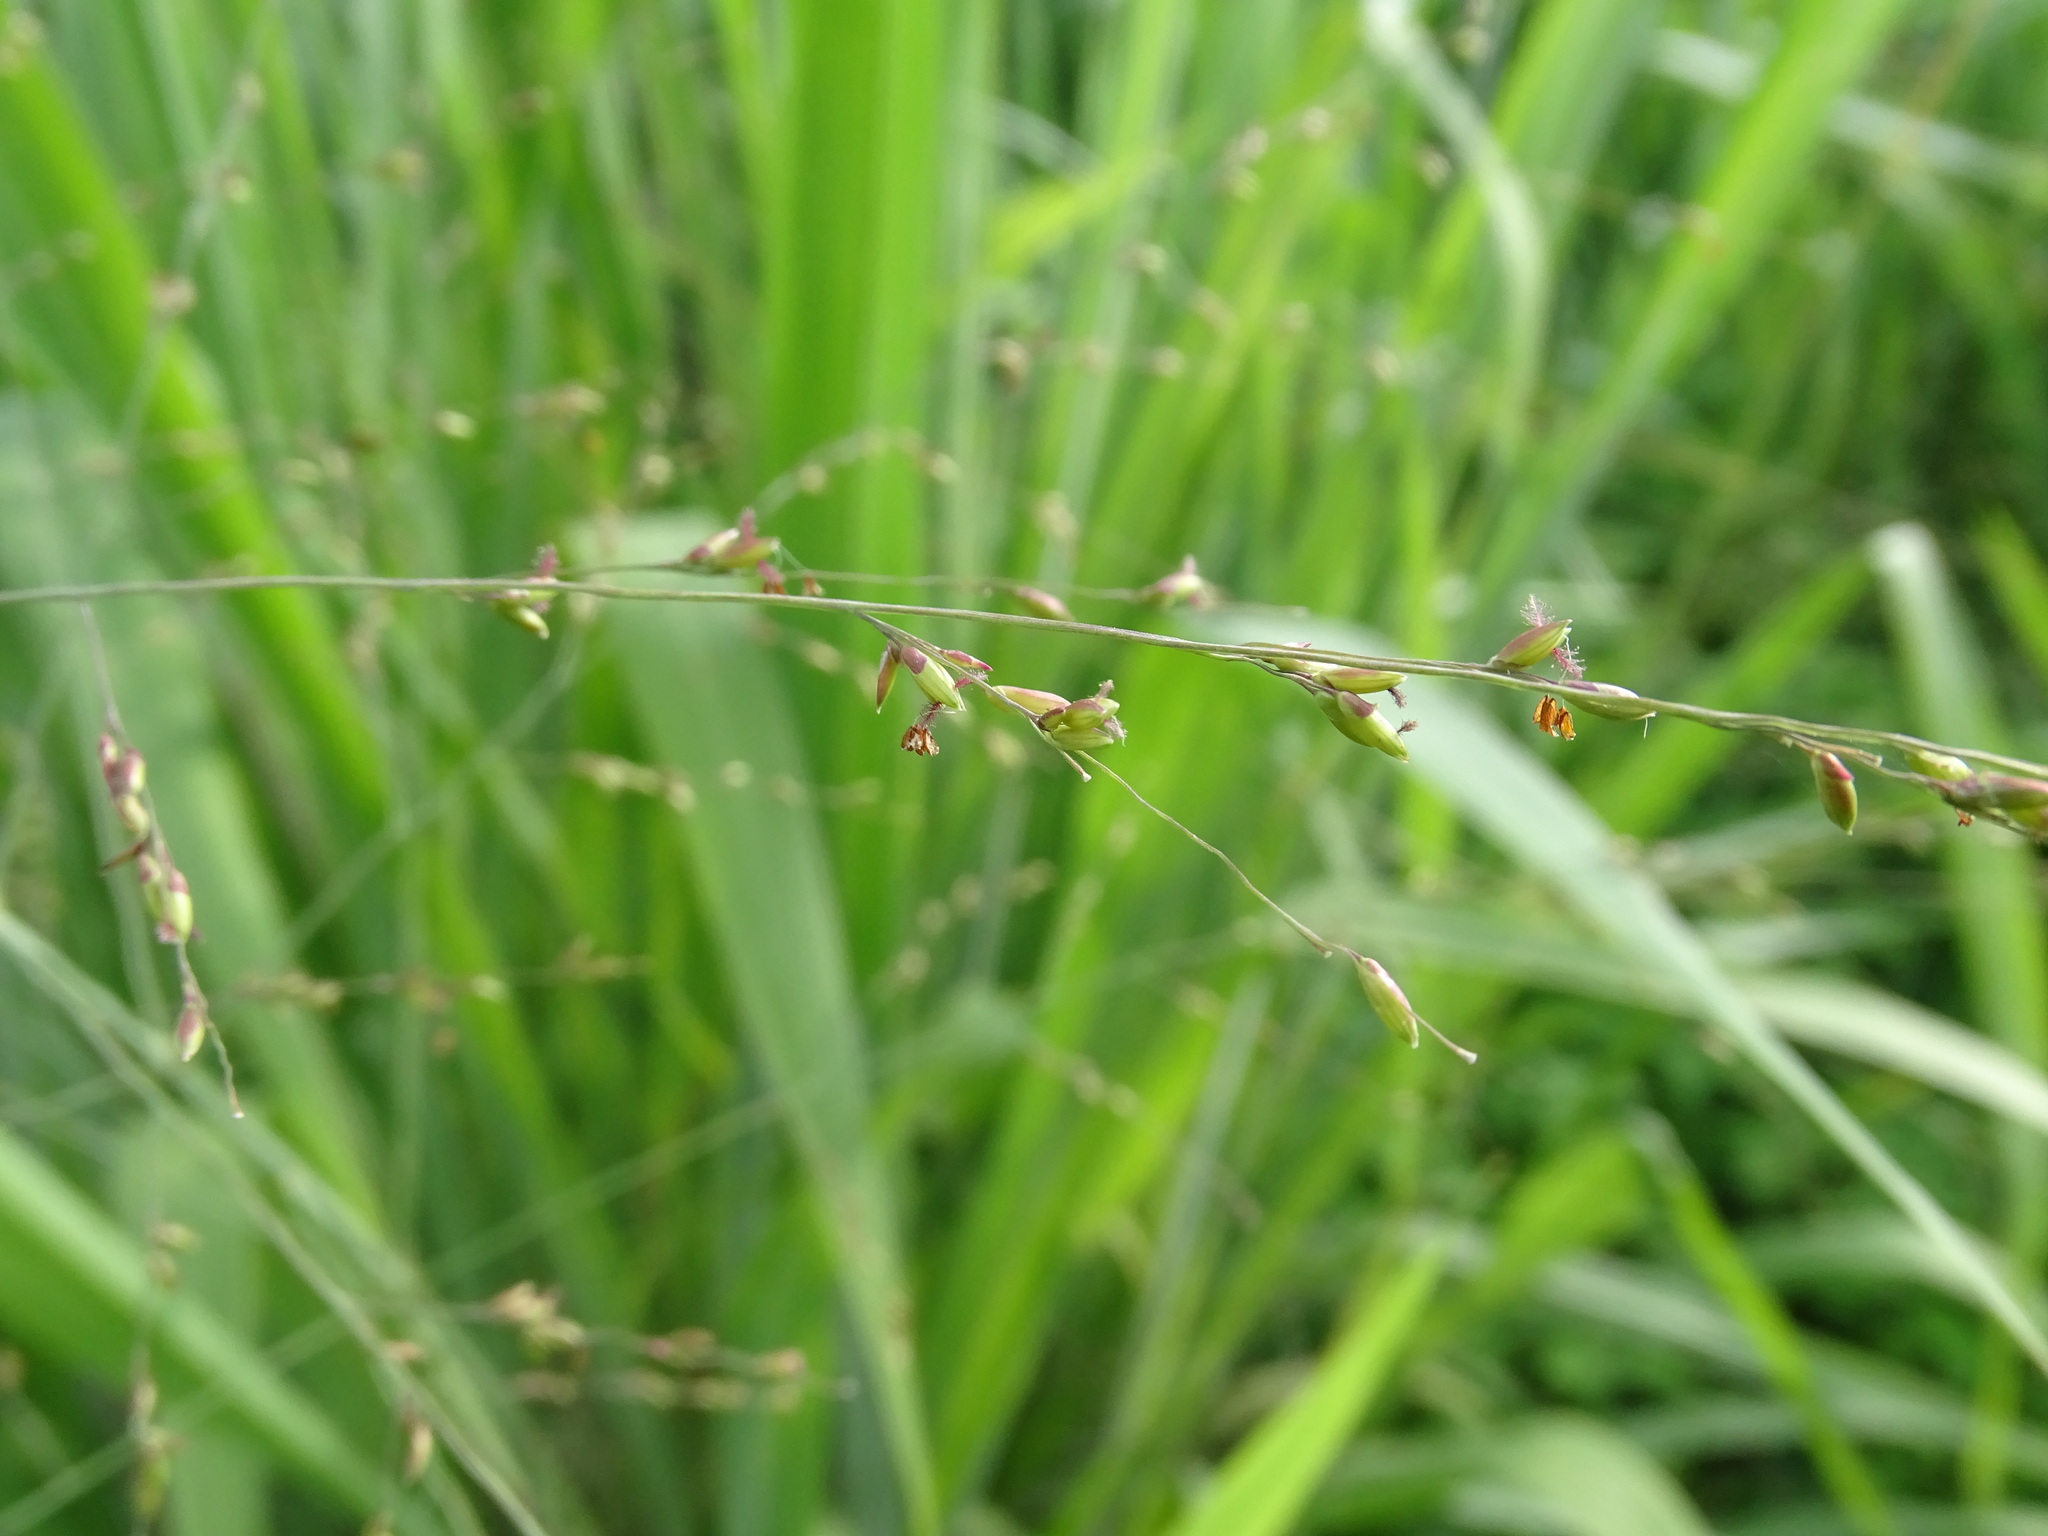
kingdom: Plantae
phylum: Tracheophyta
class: Liliopsida
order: Poales
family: Poaceae
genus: Megathyrsus
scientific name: Megathyrsus maximus
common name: Guineagrass
